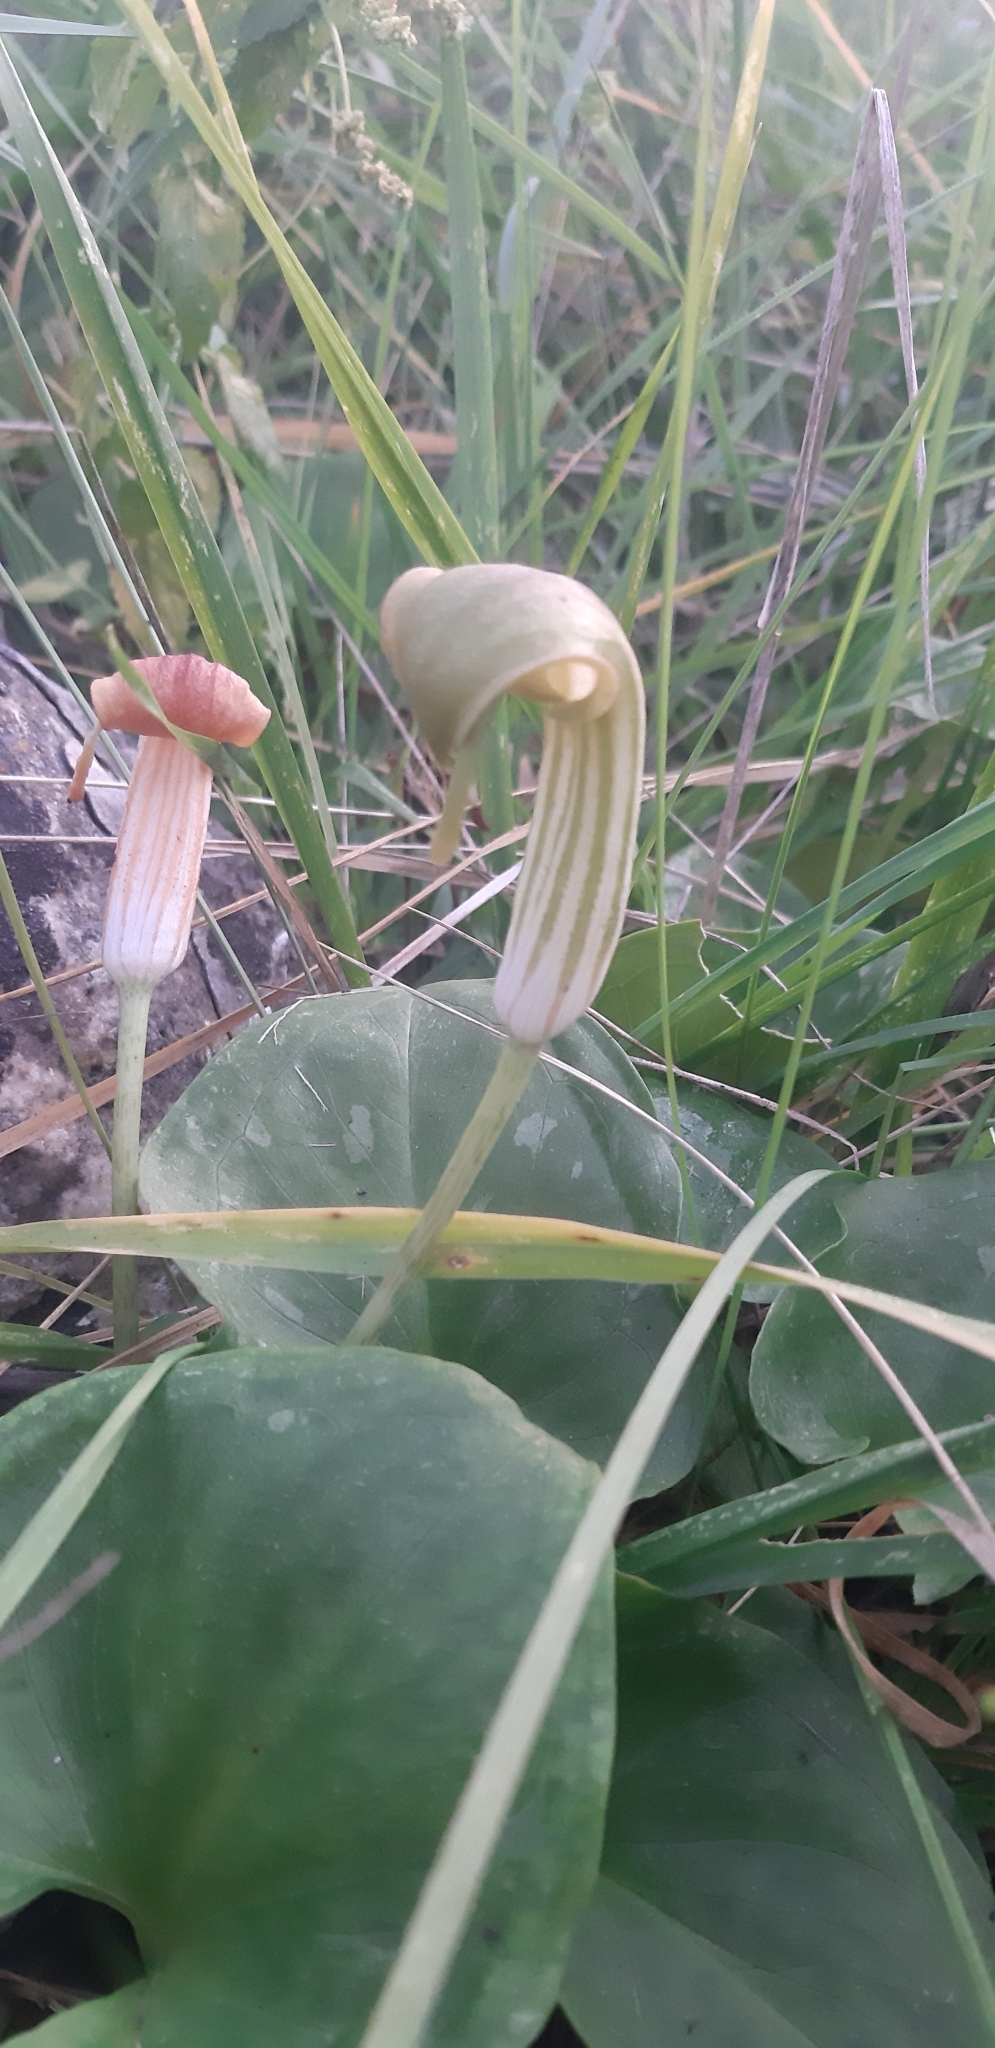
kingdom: Plantae
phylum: Tracheophyta
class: Liliopsida
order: Alismatales
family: Araceae
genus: Arisarum
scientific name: Arisarum vulgare
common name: Common arisarum
